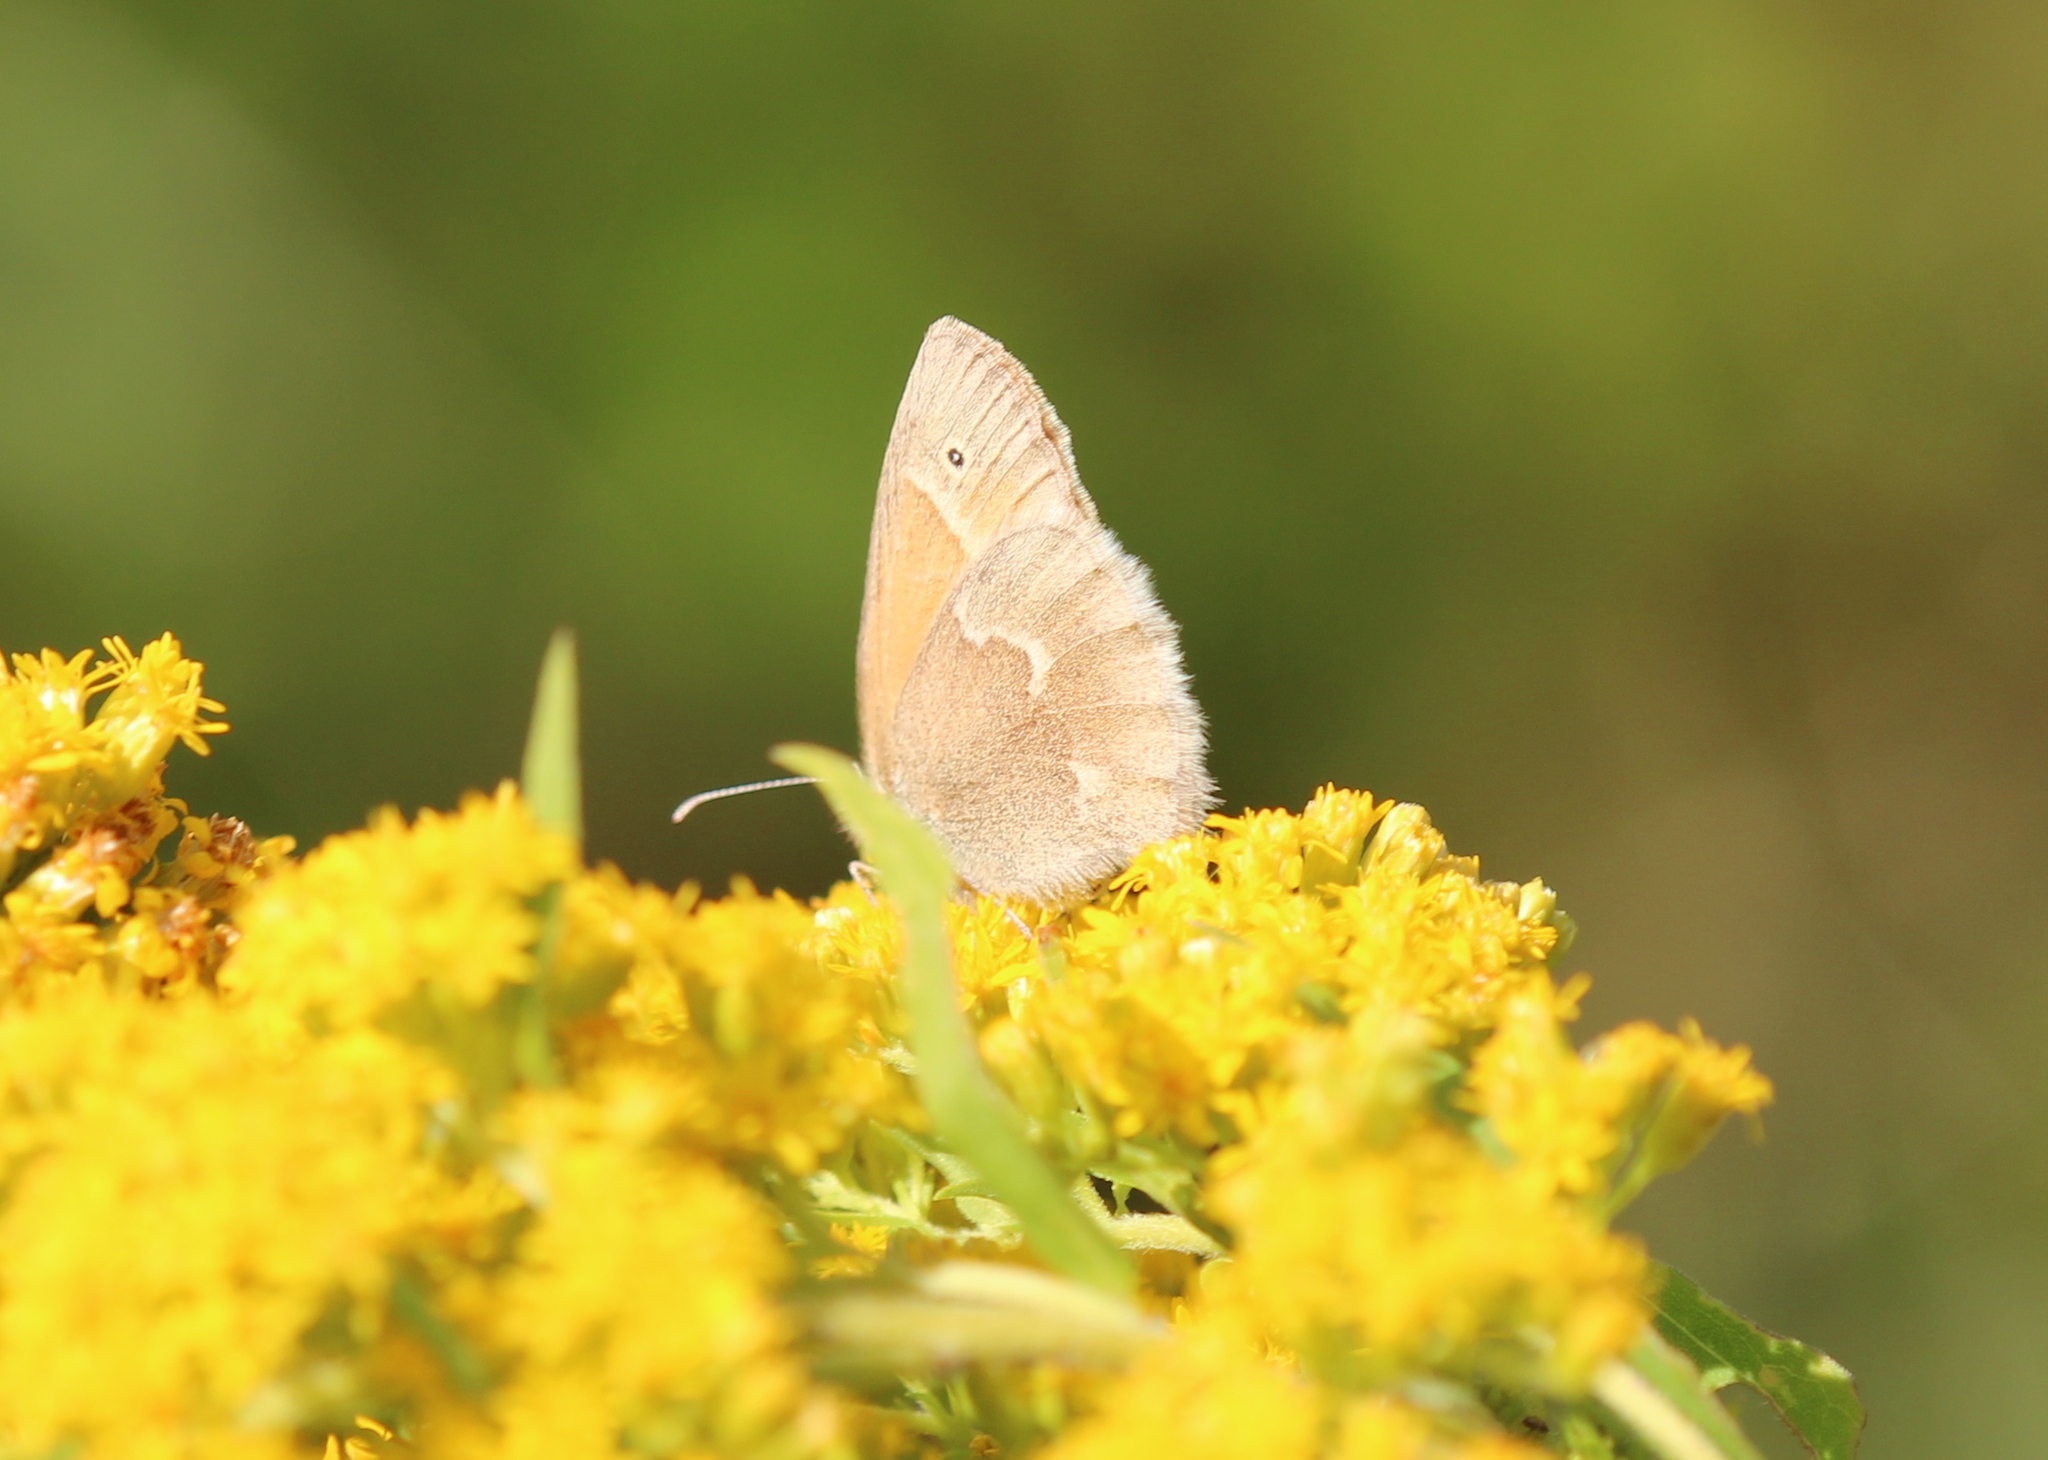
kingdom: Animalia
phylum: Arthropoda
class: Insecta
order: Lepidoptera
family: Nymphalidae
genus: Coenonympha
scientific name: Coenonympha california
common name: Common ringlet
